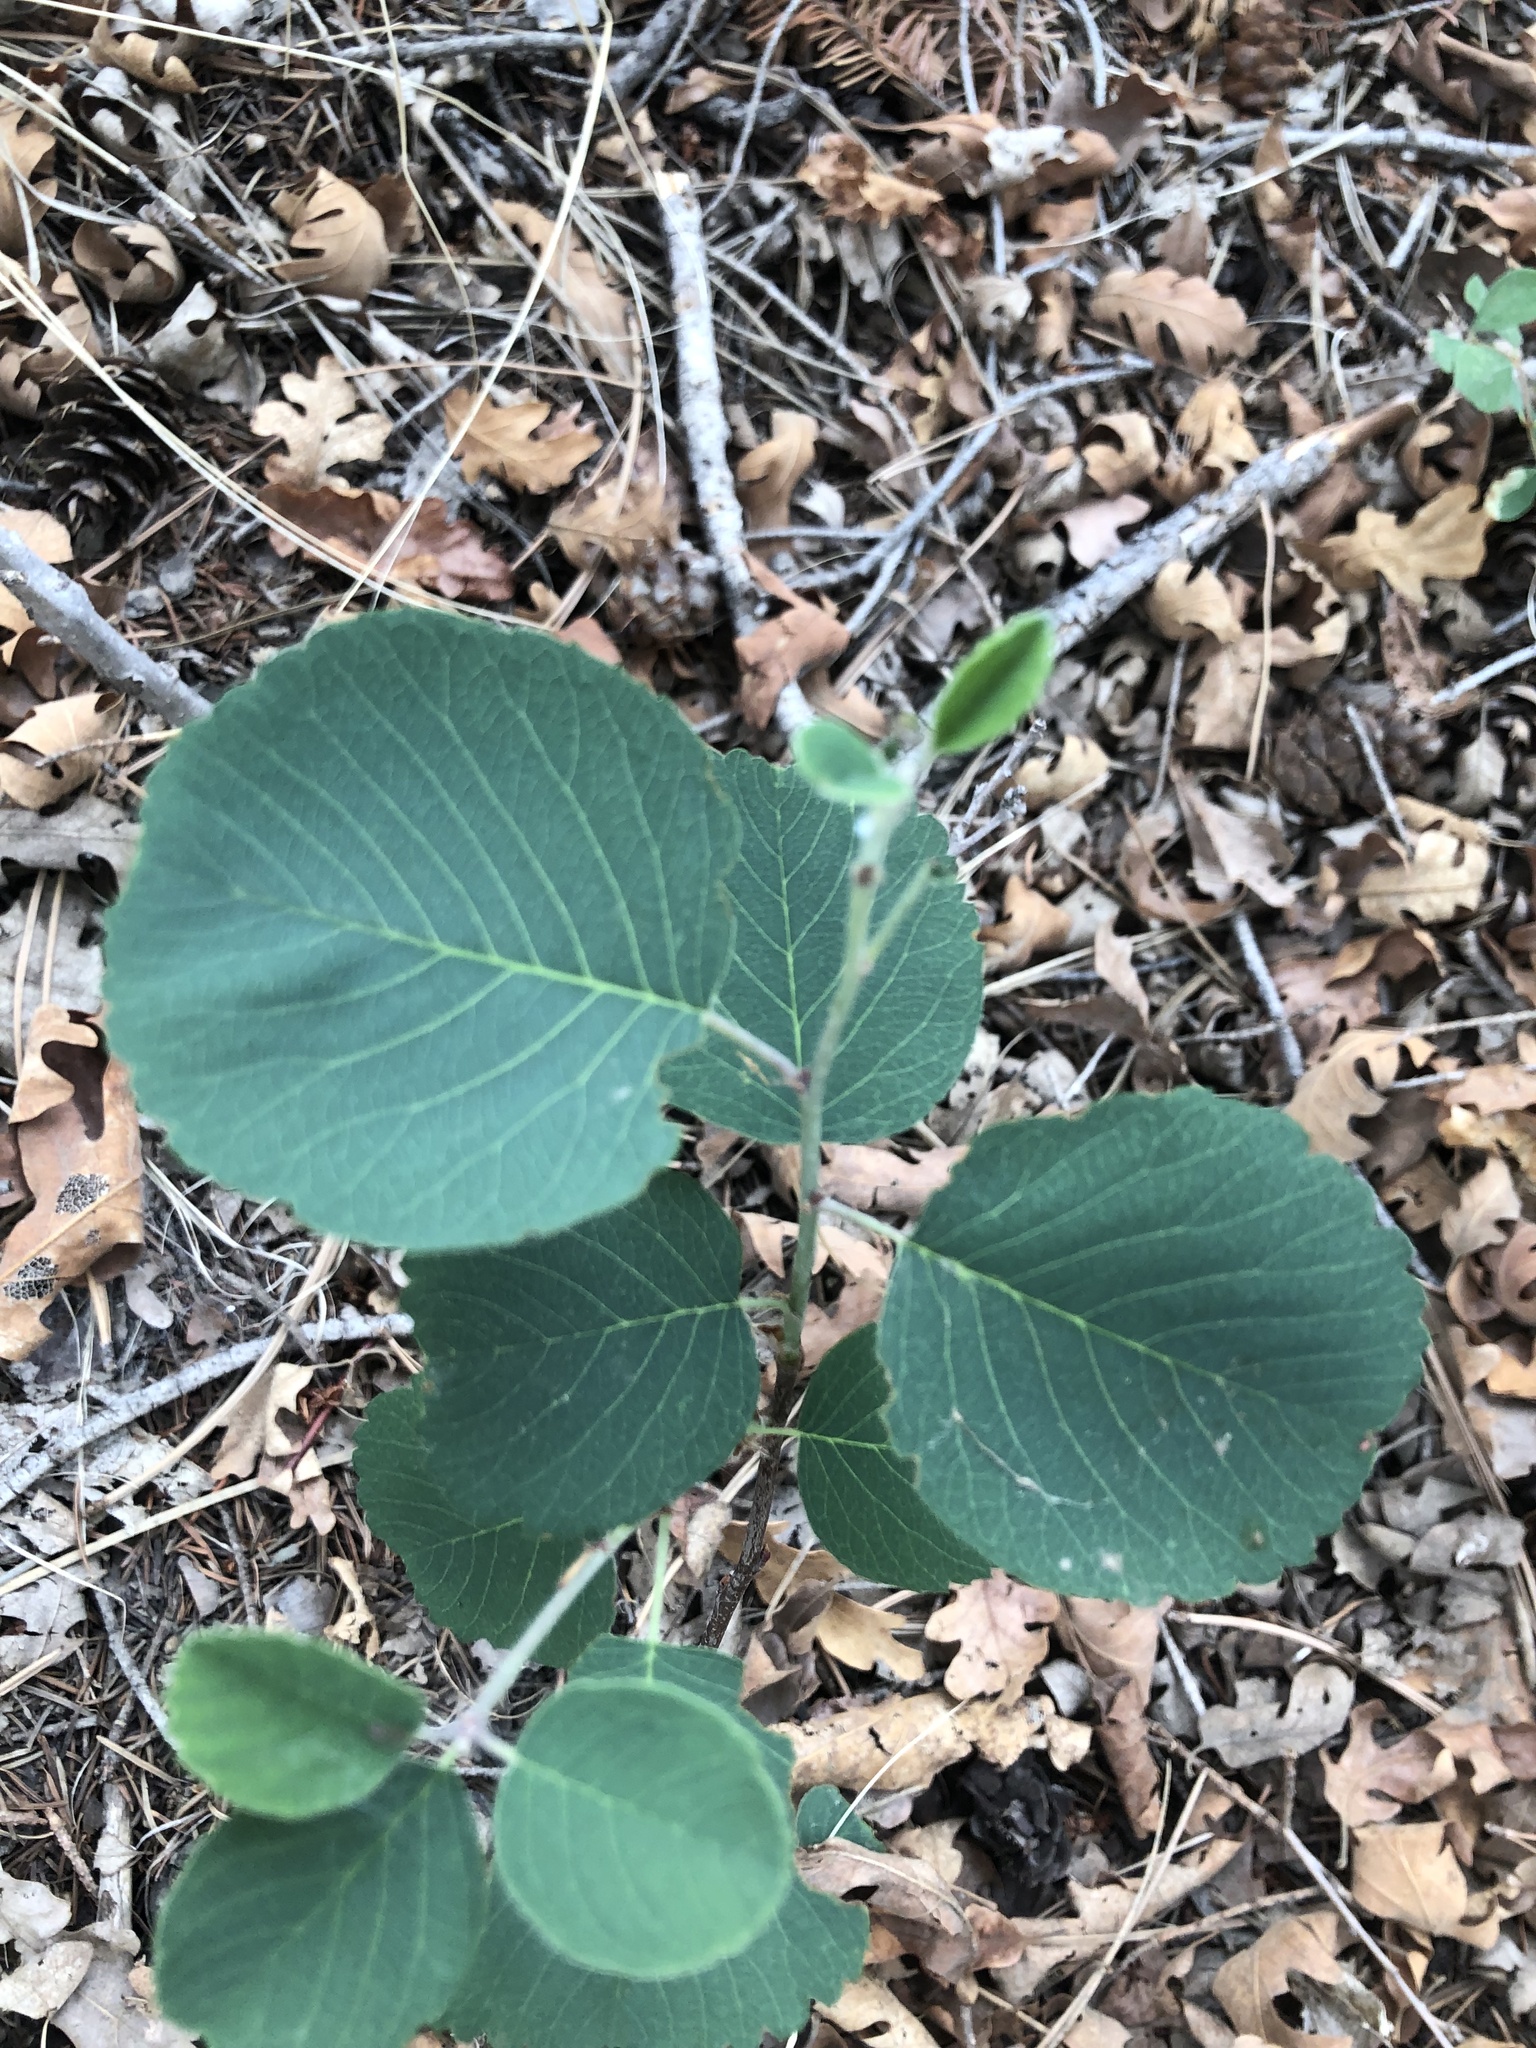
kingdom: Plantae
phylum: Tracheophyta
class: Magnoliopsida
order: Rosales
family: Rosaceae
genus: Amelanchier
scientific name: Amelanchier utahensis
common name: Utah serviceberry
